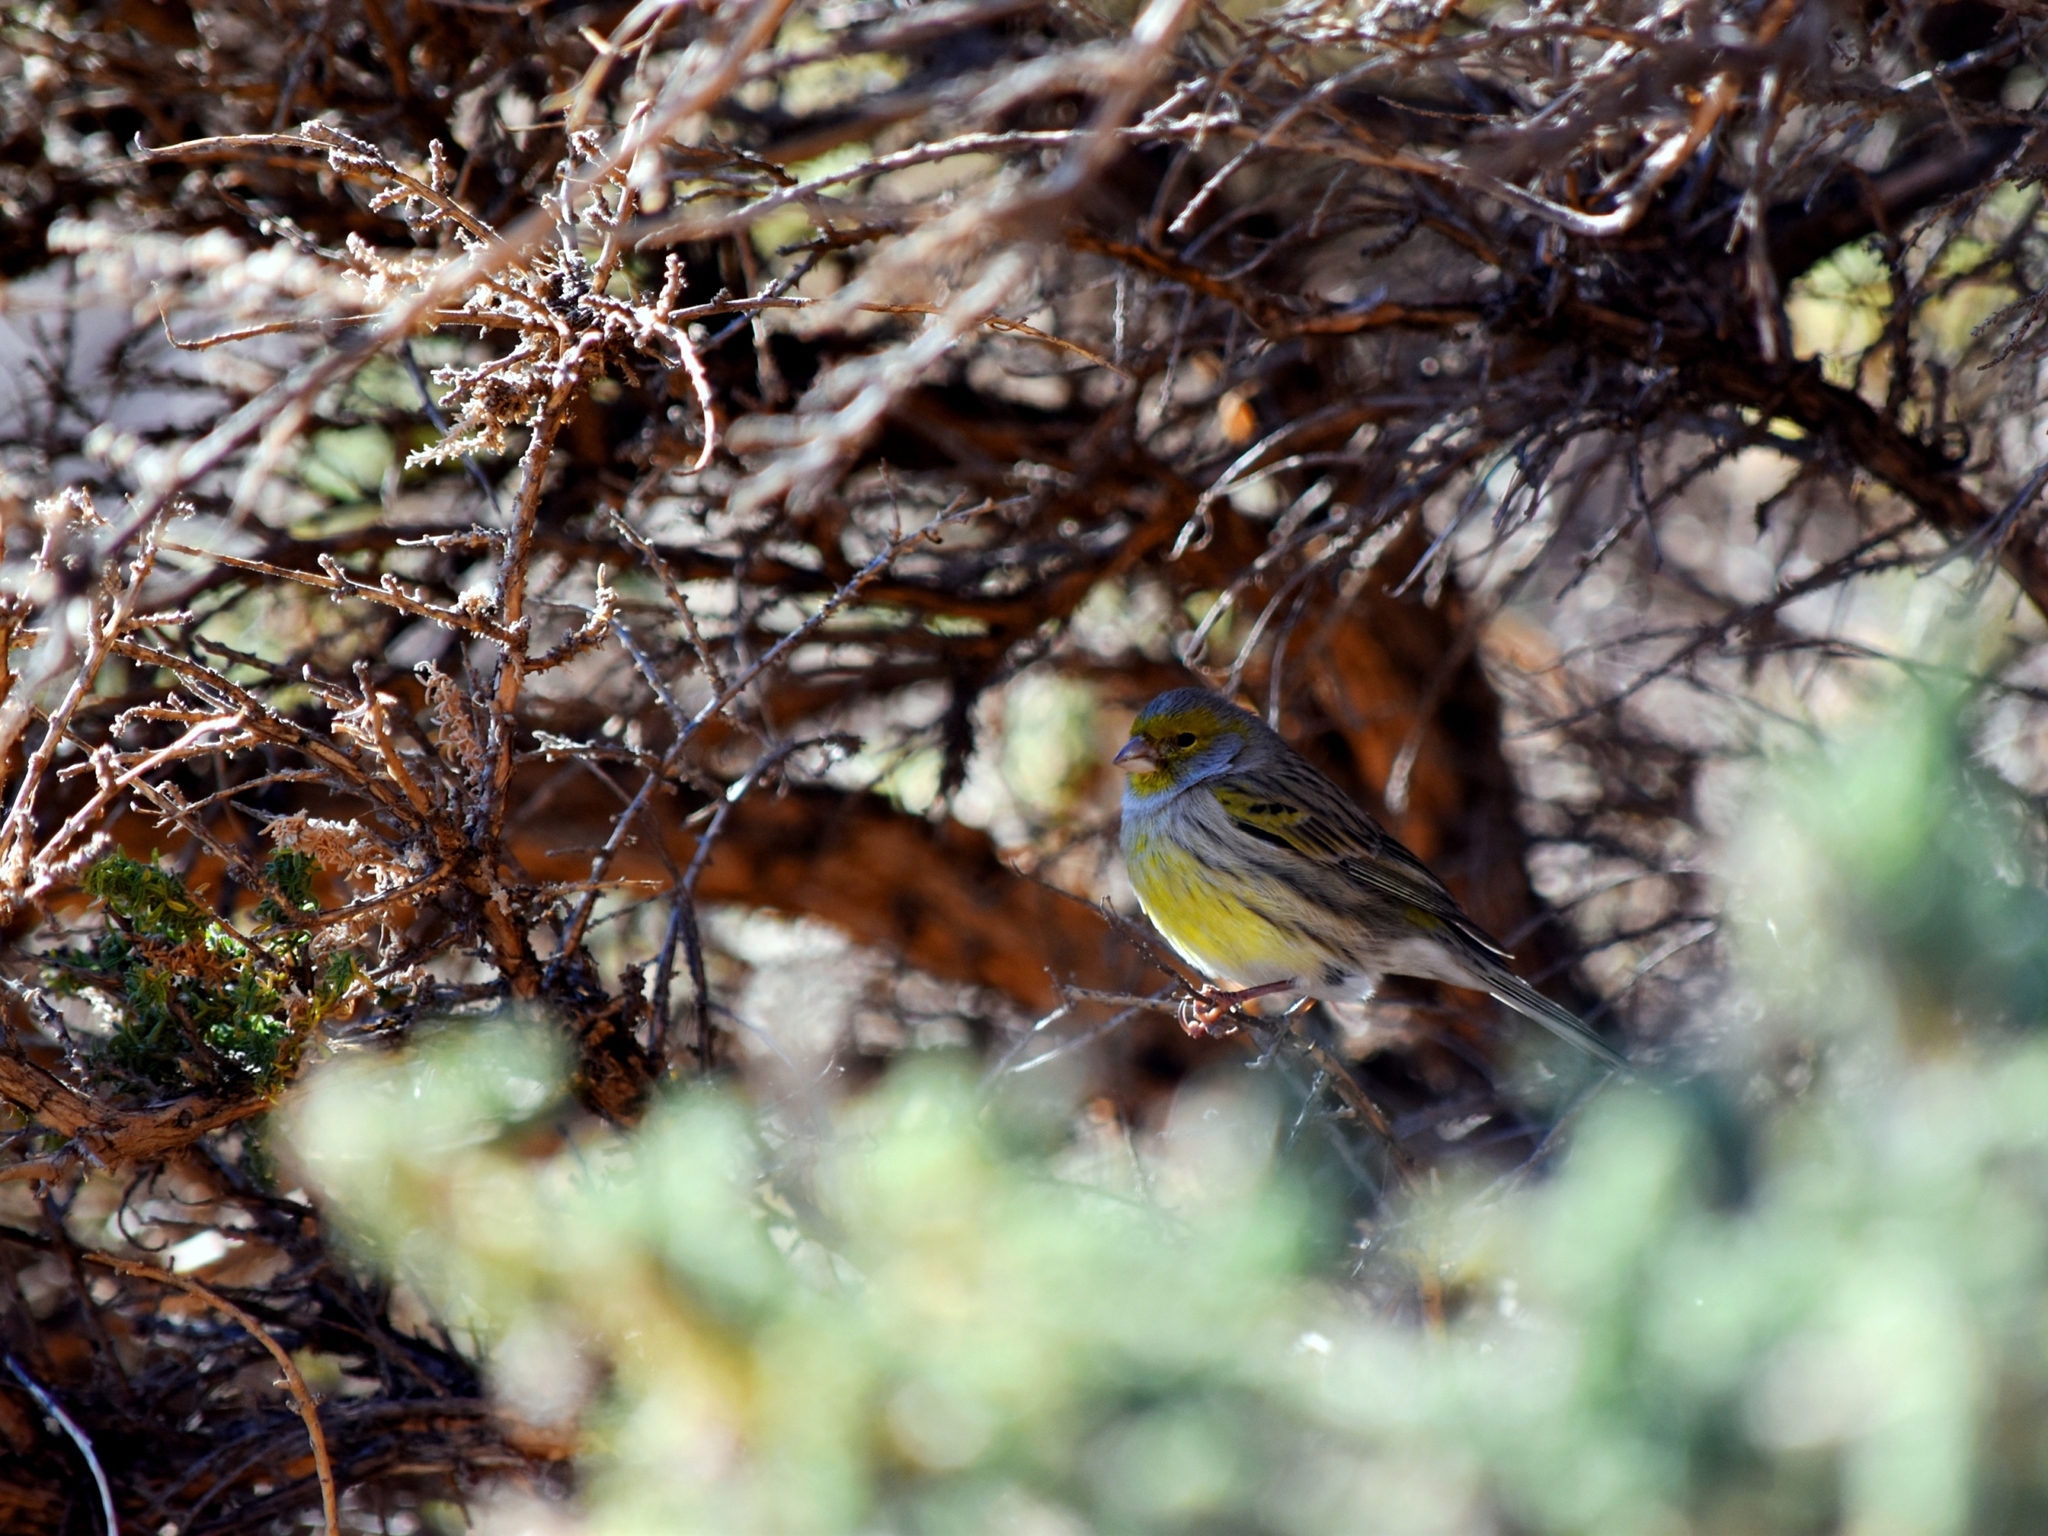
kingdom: Animalia
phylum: Chordata
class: Aves
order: Passeriformes
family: Fringillidae
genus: Serinus
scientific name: Serinus canaria
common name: Atlantic canary
